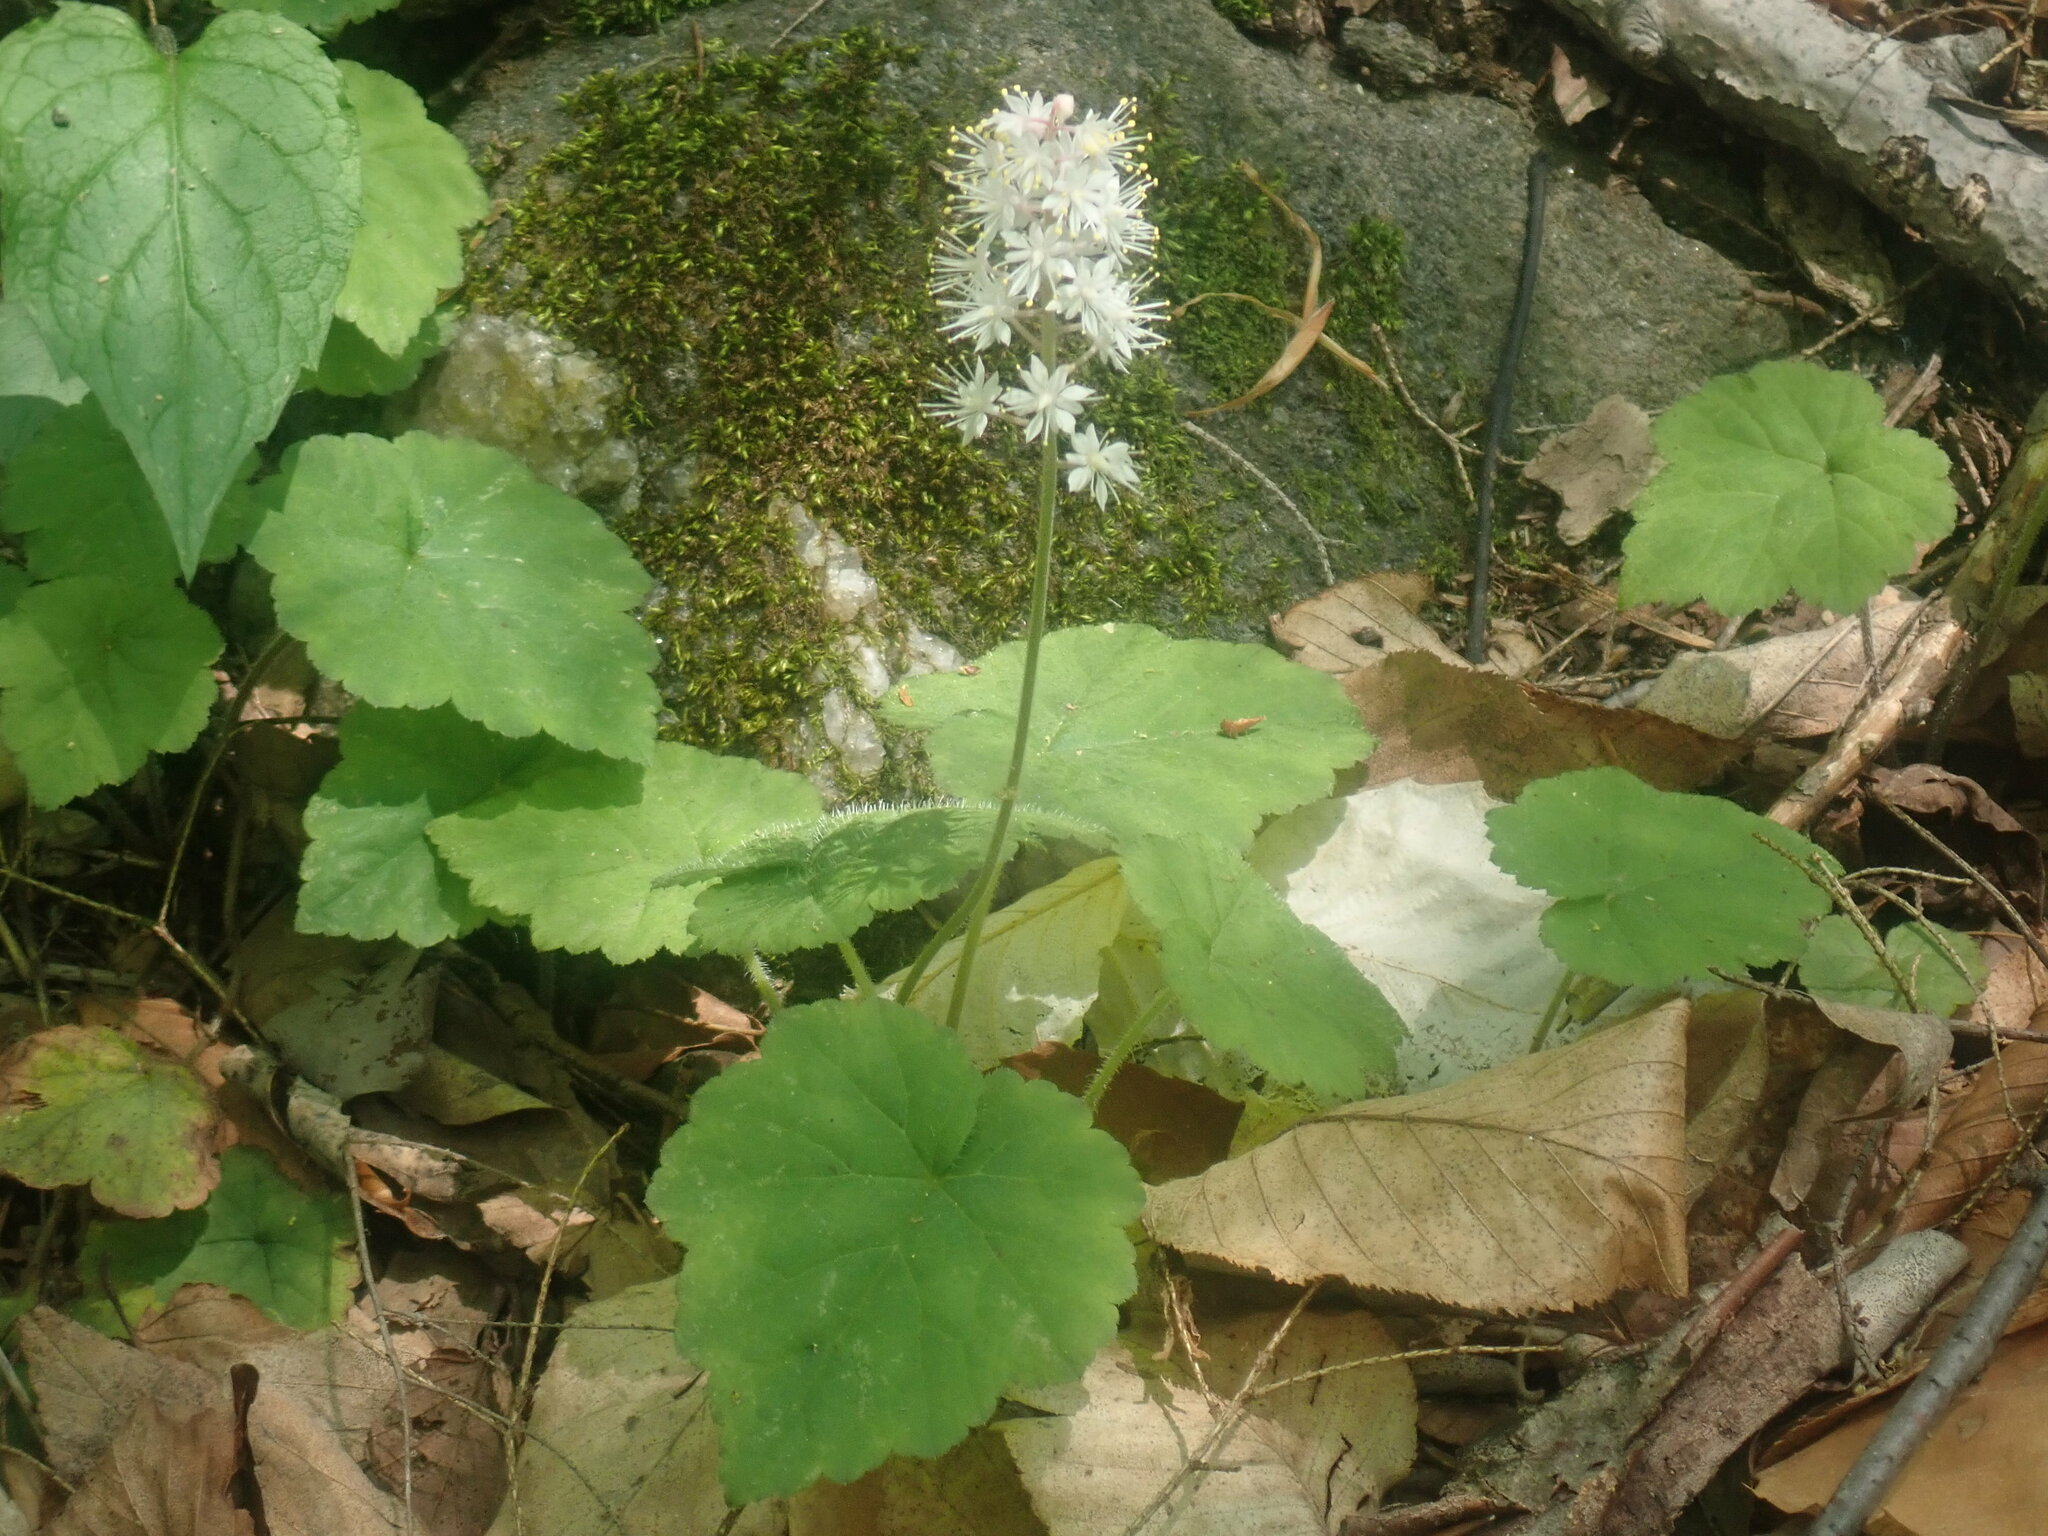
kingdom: Plantae
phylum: Tracheophyta
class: Magnoliopsida
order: Saxifragales
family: Saxifragaceae
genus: Tiarella
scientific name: Tiarella stolonifera
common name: Stoloniferous foamflower
